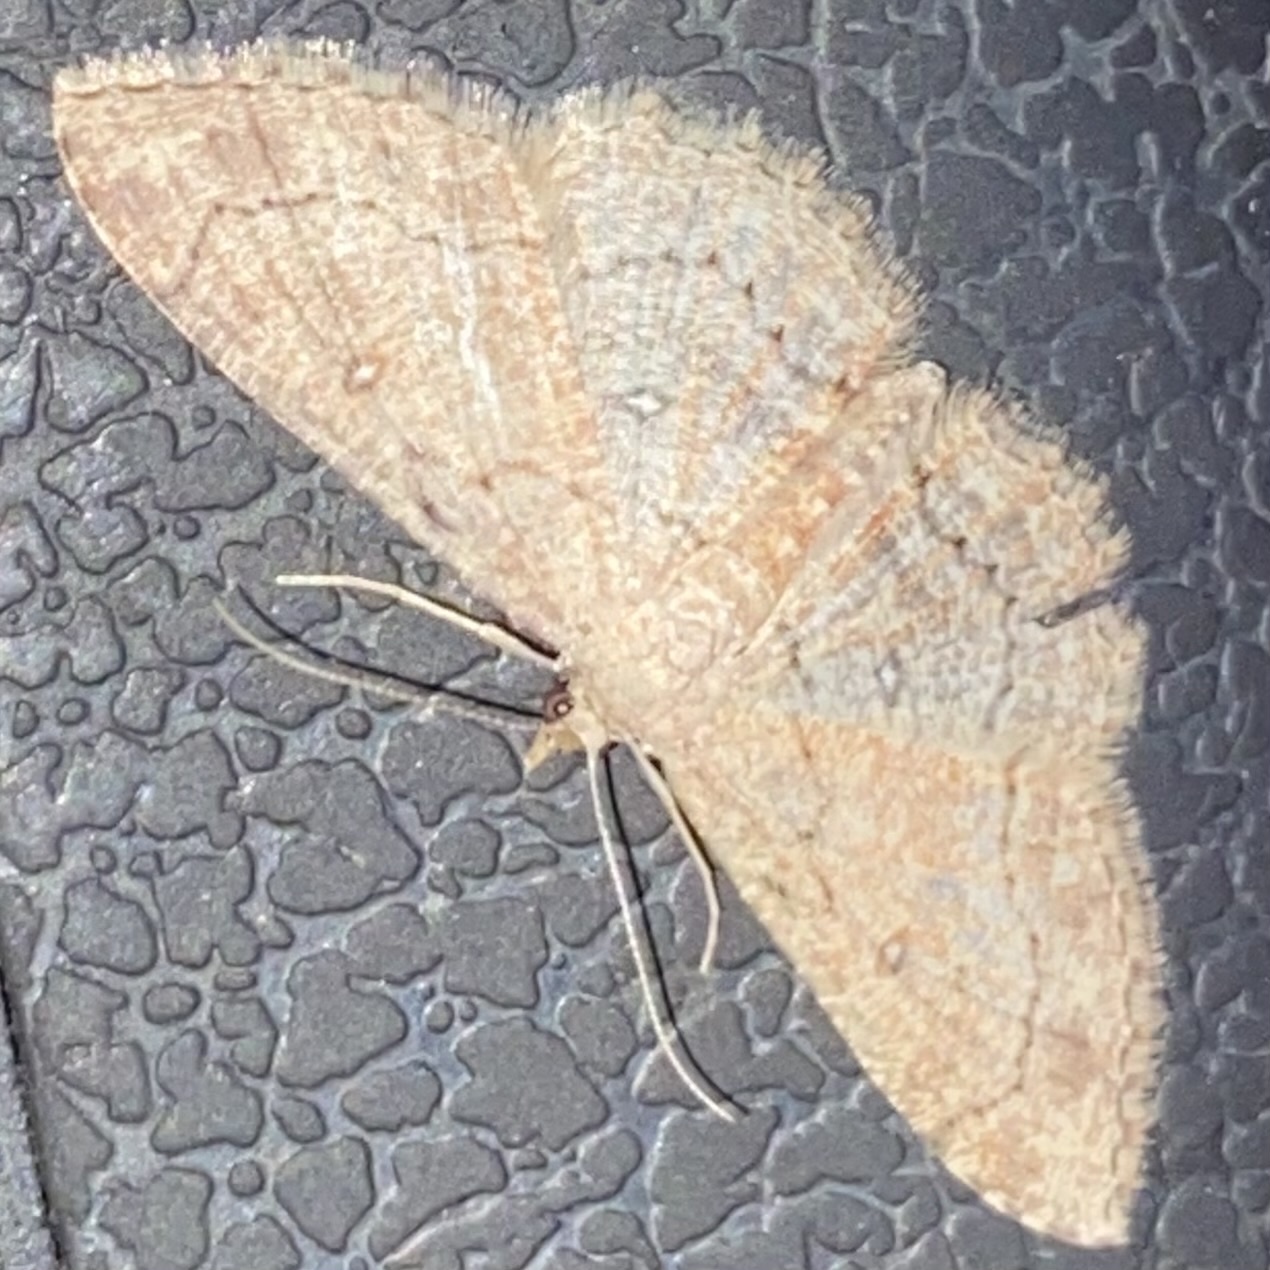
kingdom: Animalia
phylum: Arthropoda
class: Insecta
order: Lepidoptera
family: Geometridae
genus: Cyclophora
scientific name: Cyclophora nanaria
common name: Cankerworm
